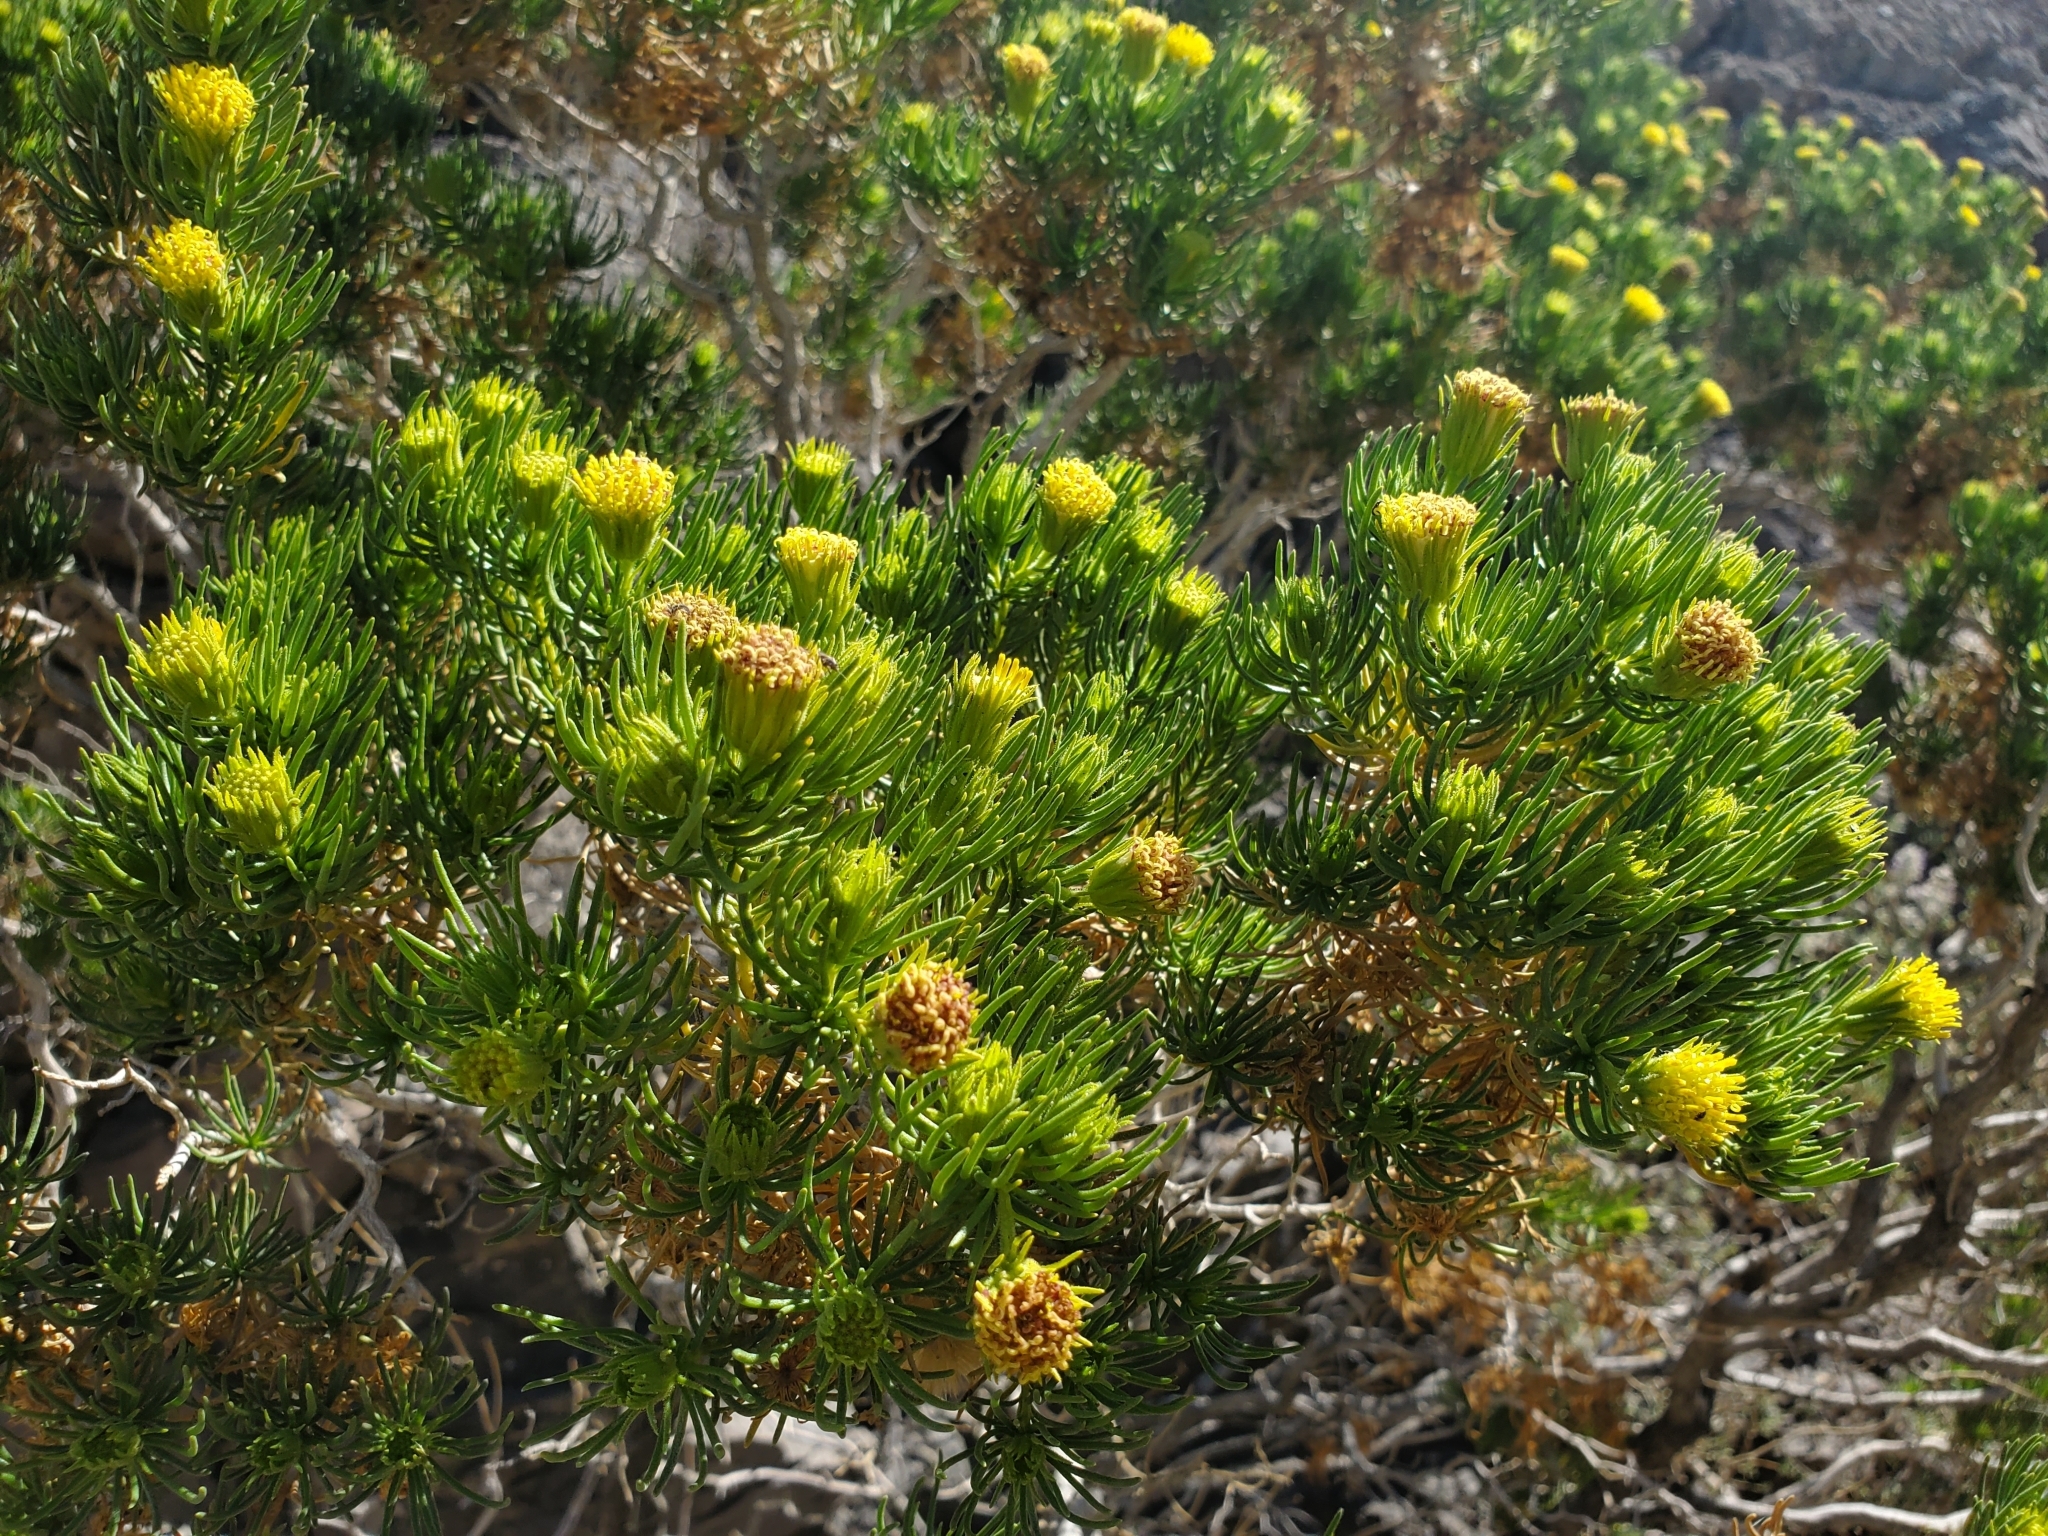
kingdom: Plantae
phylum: Tracheophyta
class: Magnoliopsida
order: Asterales
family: Asteraceae
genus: Peucephyllum
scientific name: Peucephyllum schottii
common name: Pygmy-cedar
